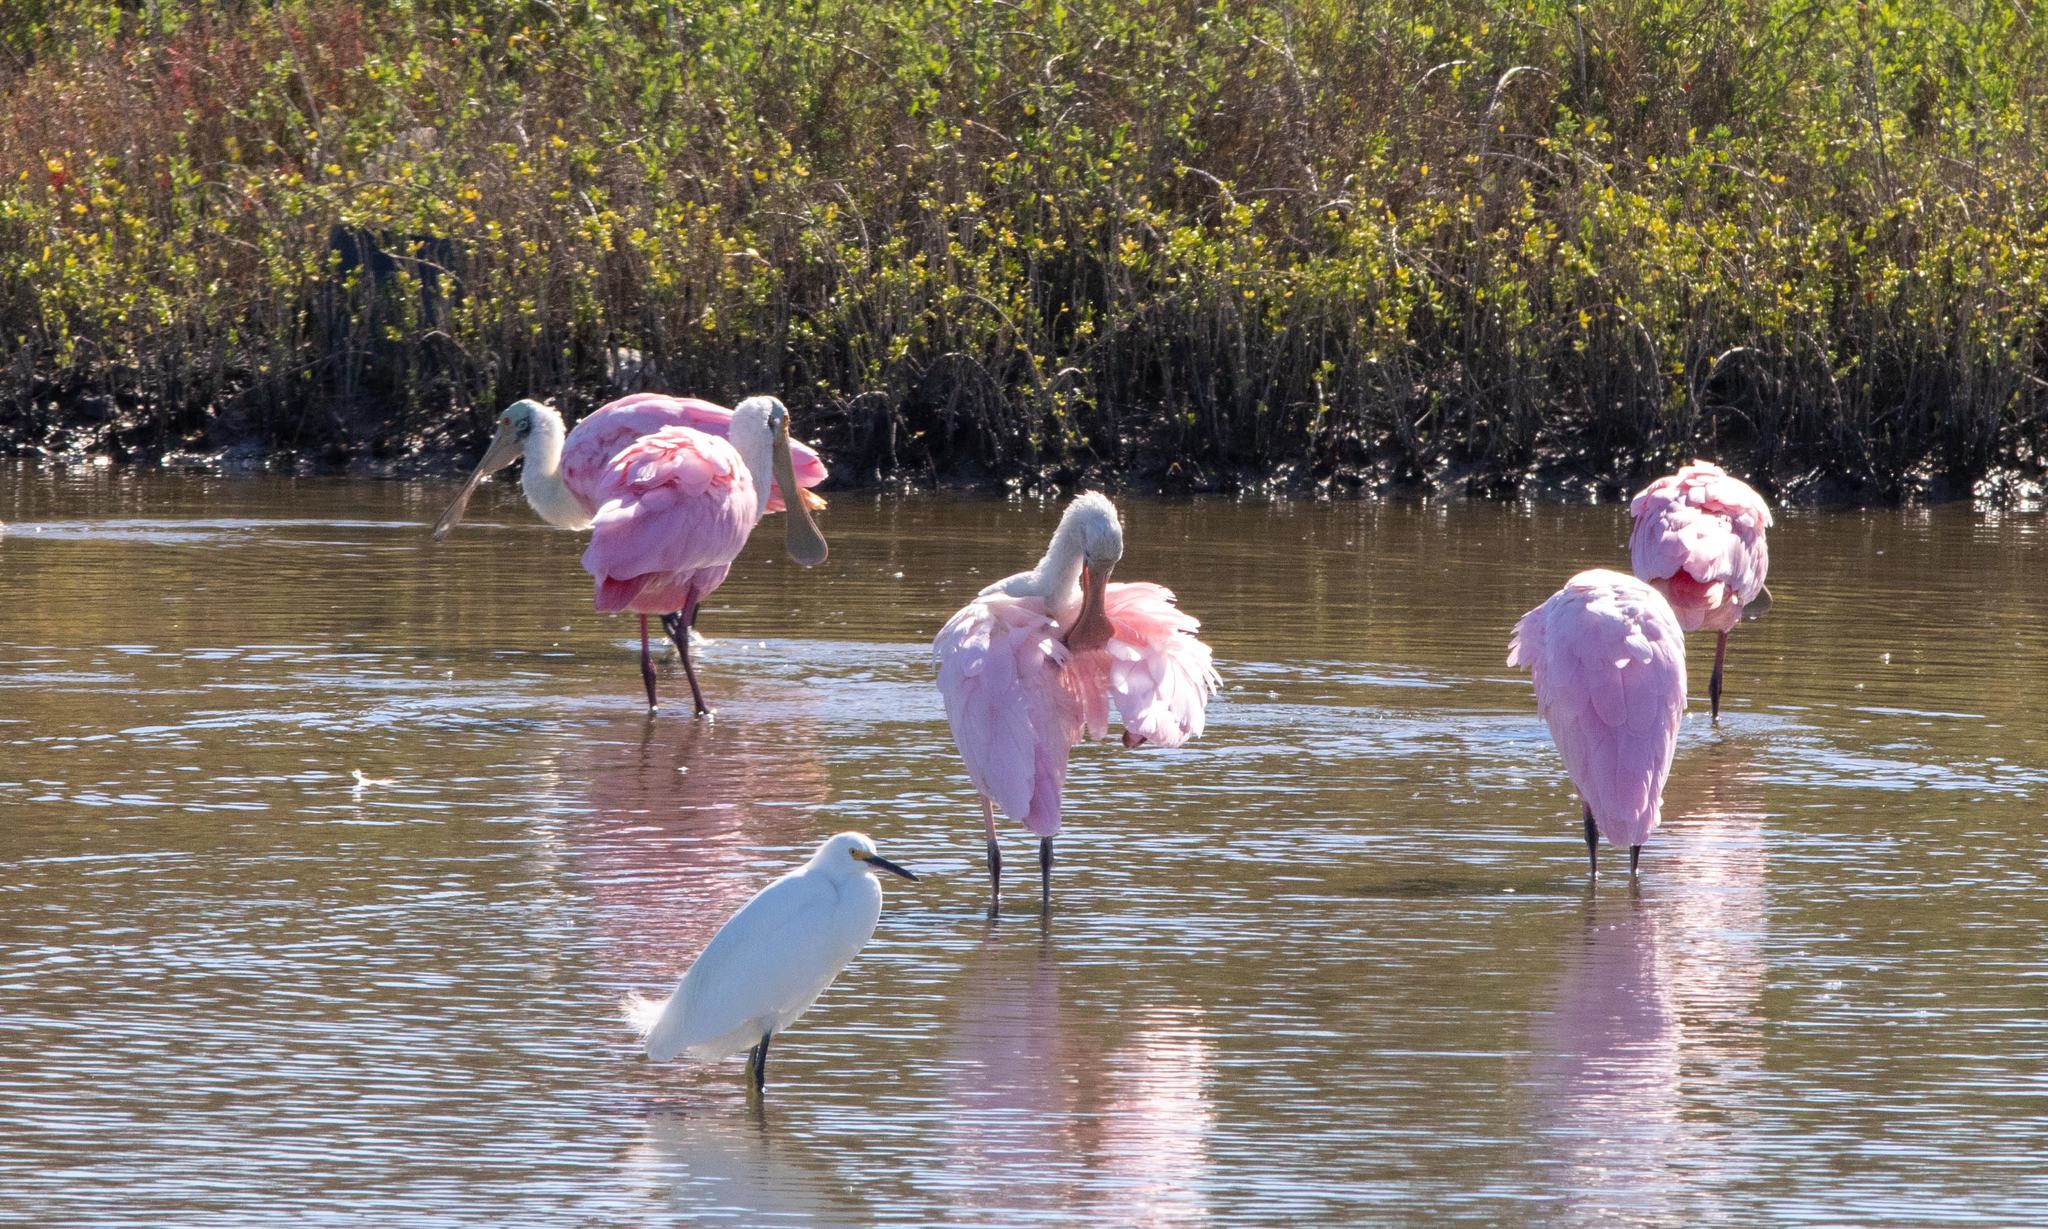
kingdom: Animalia
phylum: Chordata
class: Aves
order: Pelecaniformes
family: Threskiornithidae
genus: Platalea
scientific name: Platalea ajaja
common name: Roseate spoonbill
